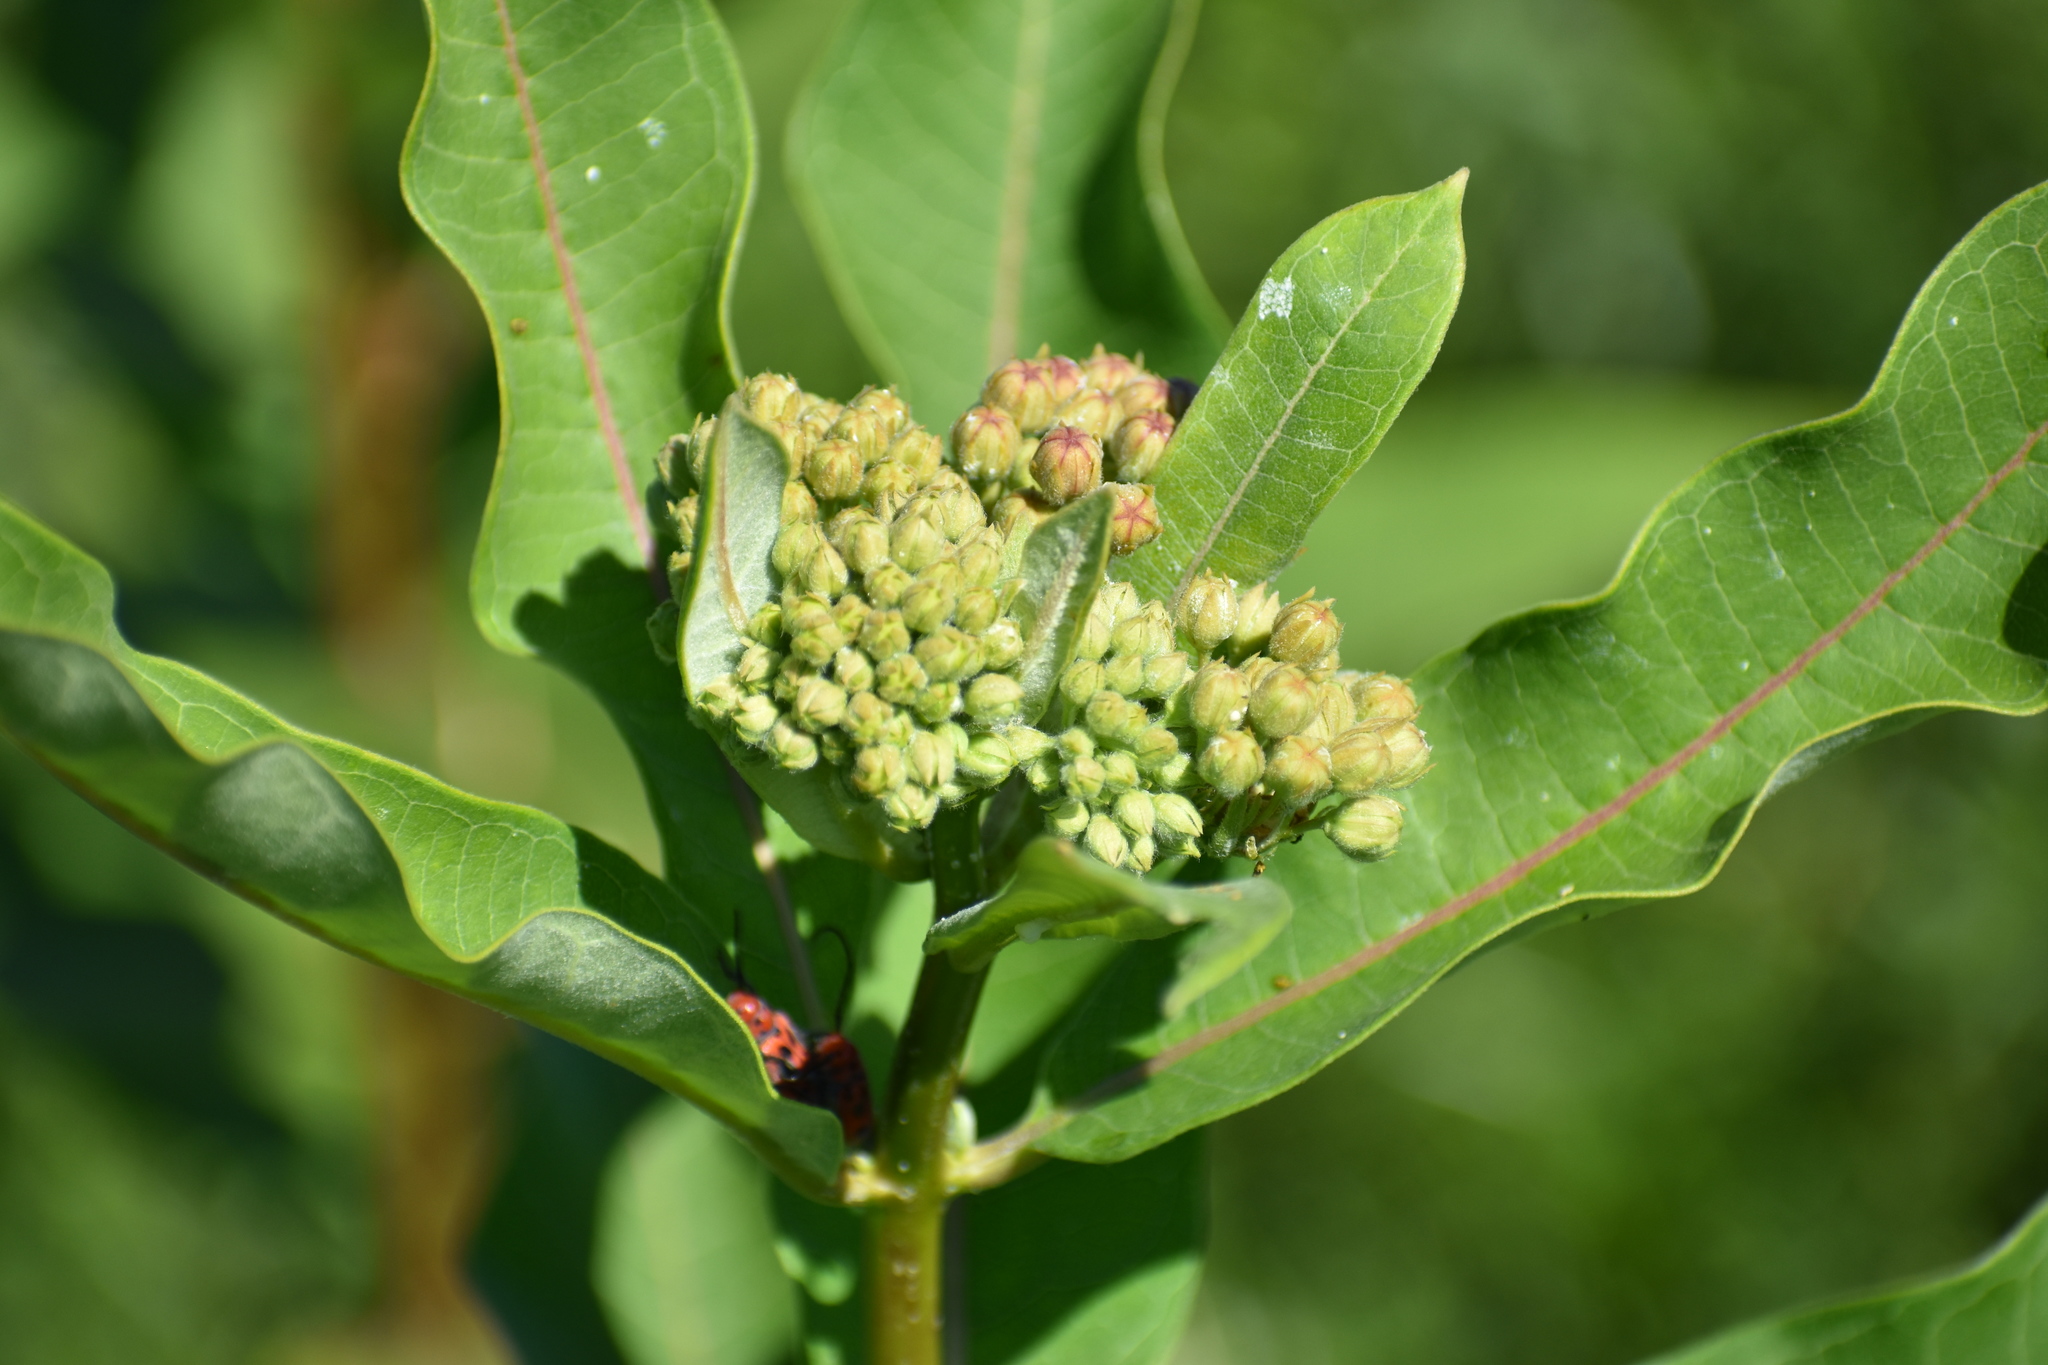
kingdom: Plantae
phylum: Tracheophyta
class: Magnoliopsida
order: Gentianales
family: Apocynaceae
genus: Asclepias
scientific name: Asclepias syriaca
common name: Common milkweed
